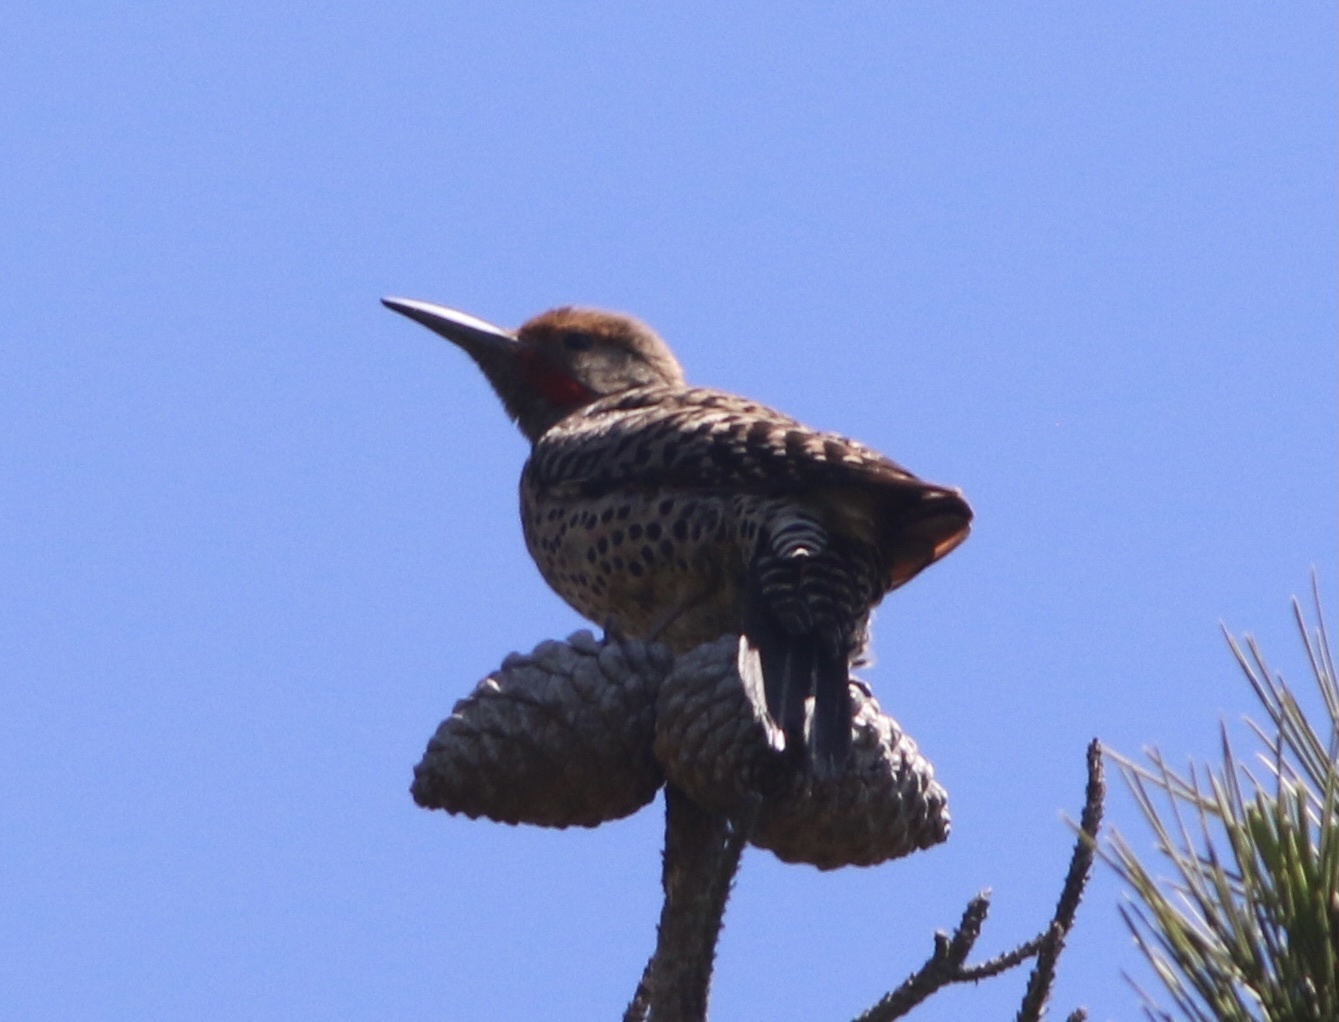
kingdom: Animalia
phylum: Chordata
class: Aves
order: Piciformes
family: Picidae
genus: Colaptes
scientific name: Colaptes auratus
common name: Northern flicker
